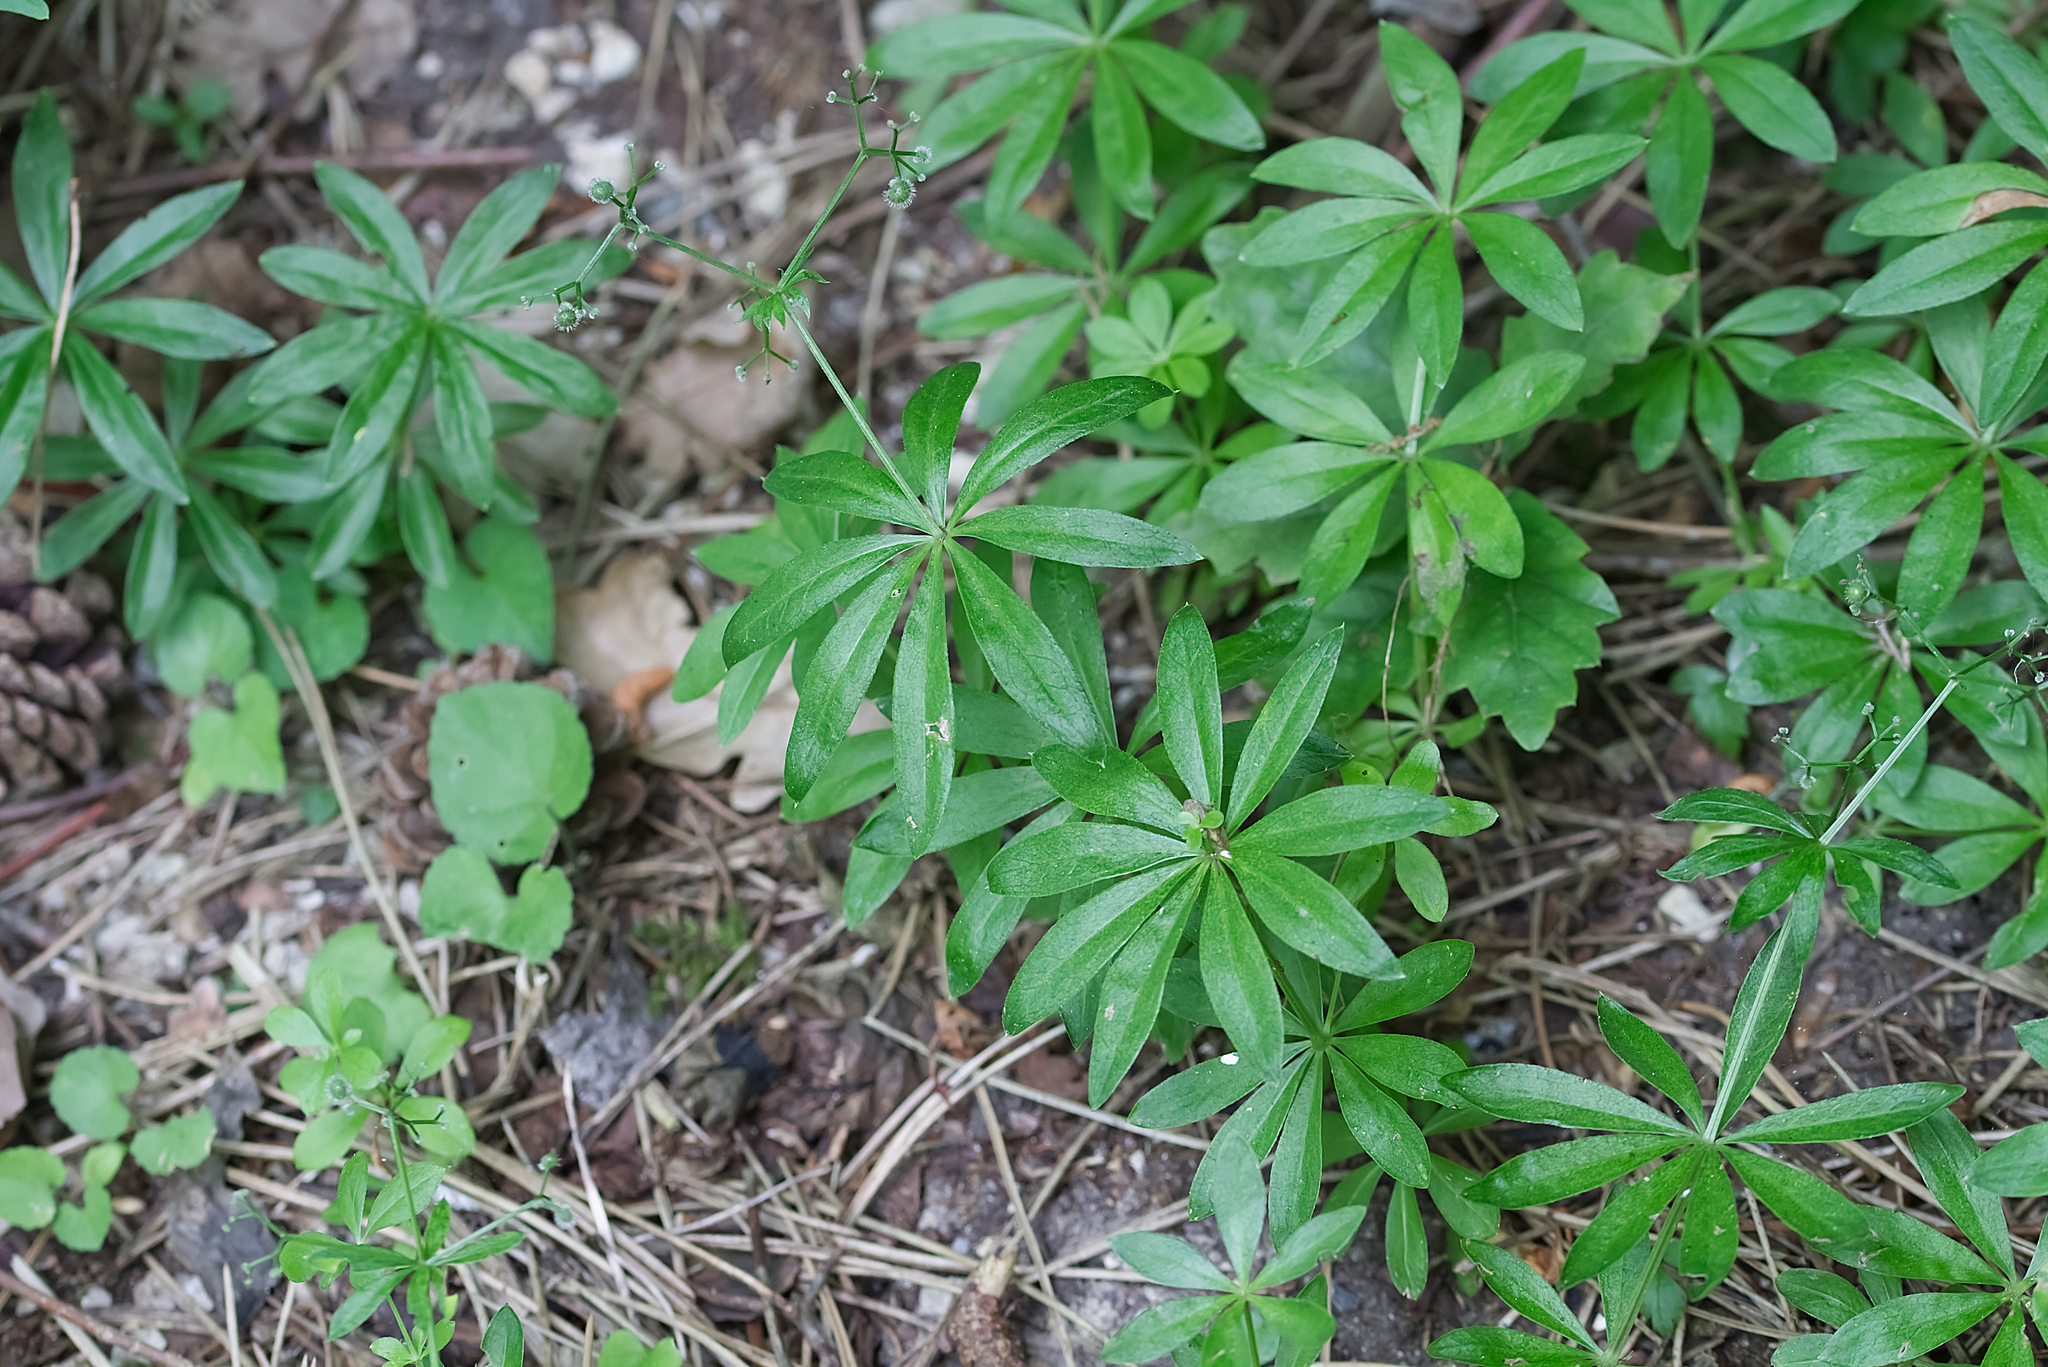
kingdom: Plantae
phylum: Tracheophyta
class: Magnoliopsida
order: Gentianales
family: Rubiaceae
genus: Galium
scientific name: Galium odoratum
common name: Sweet woodruff
